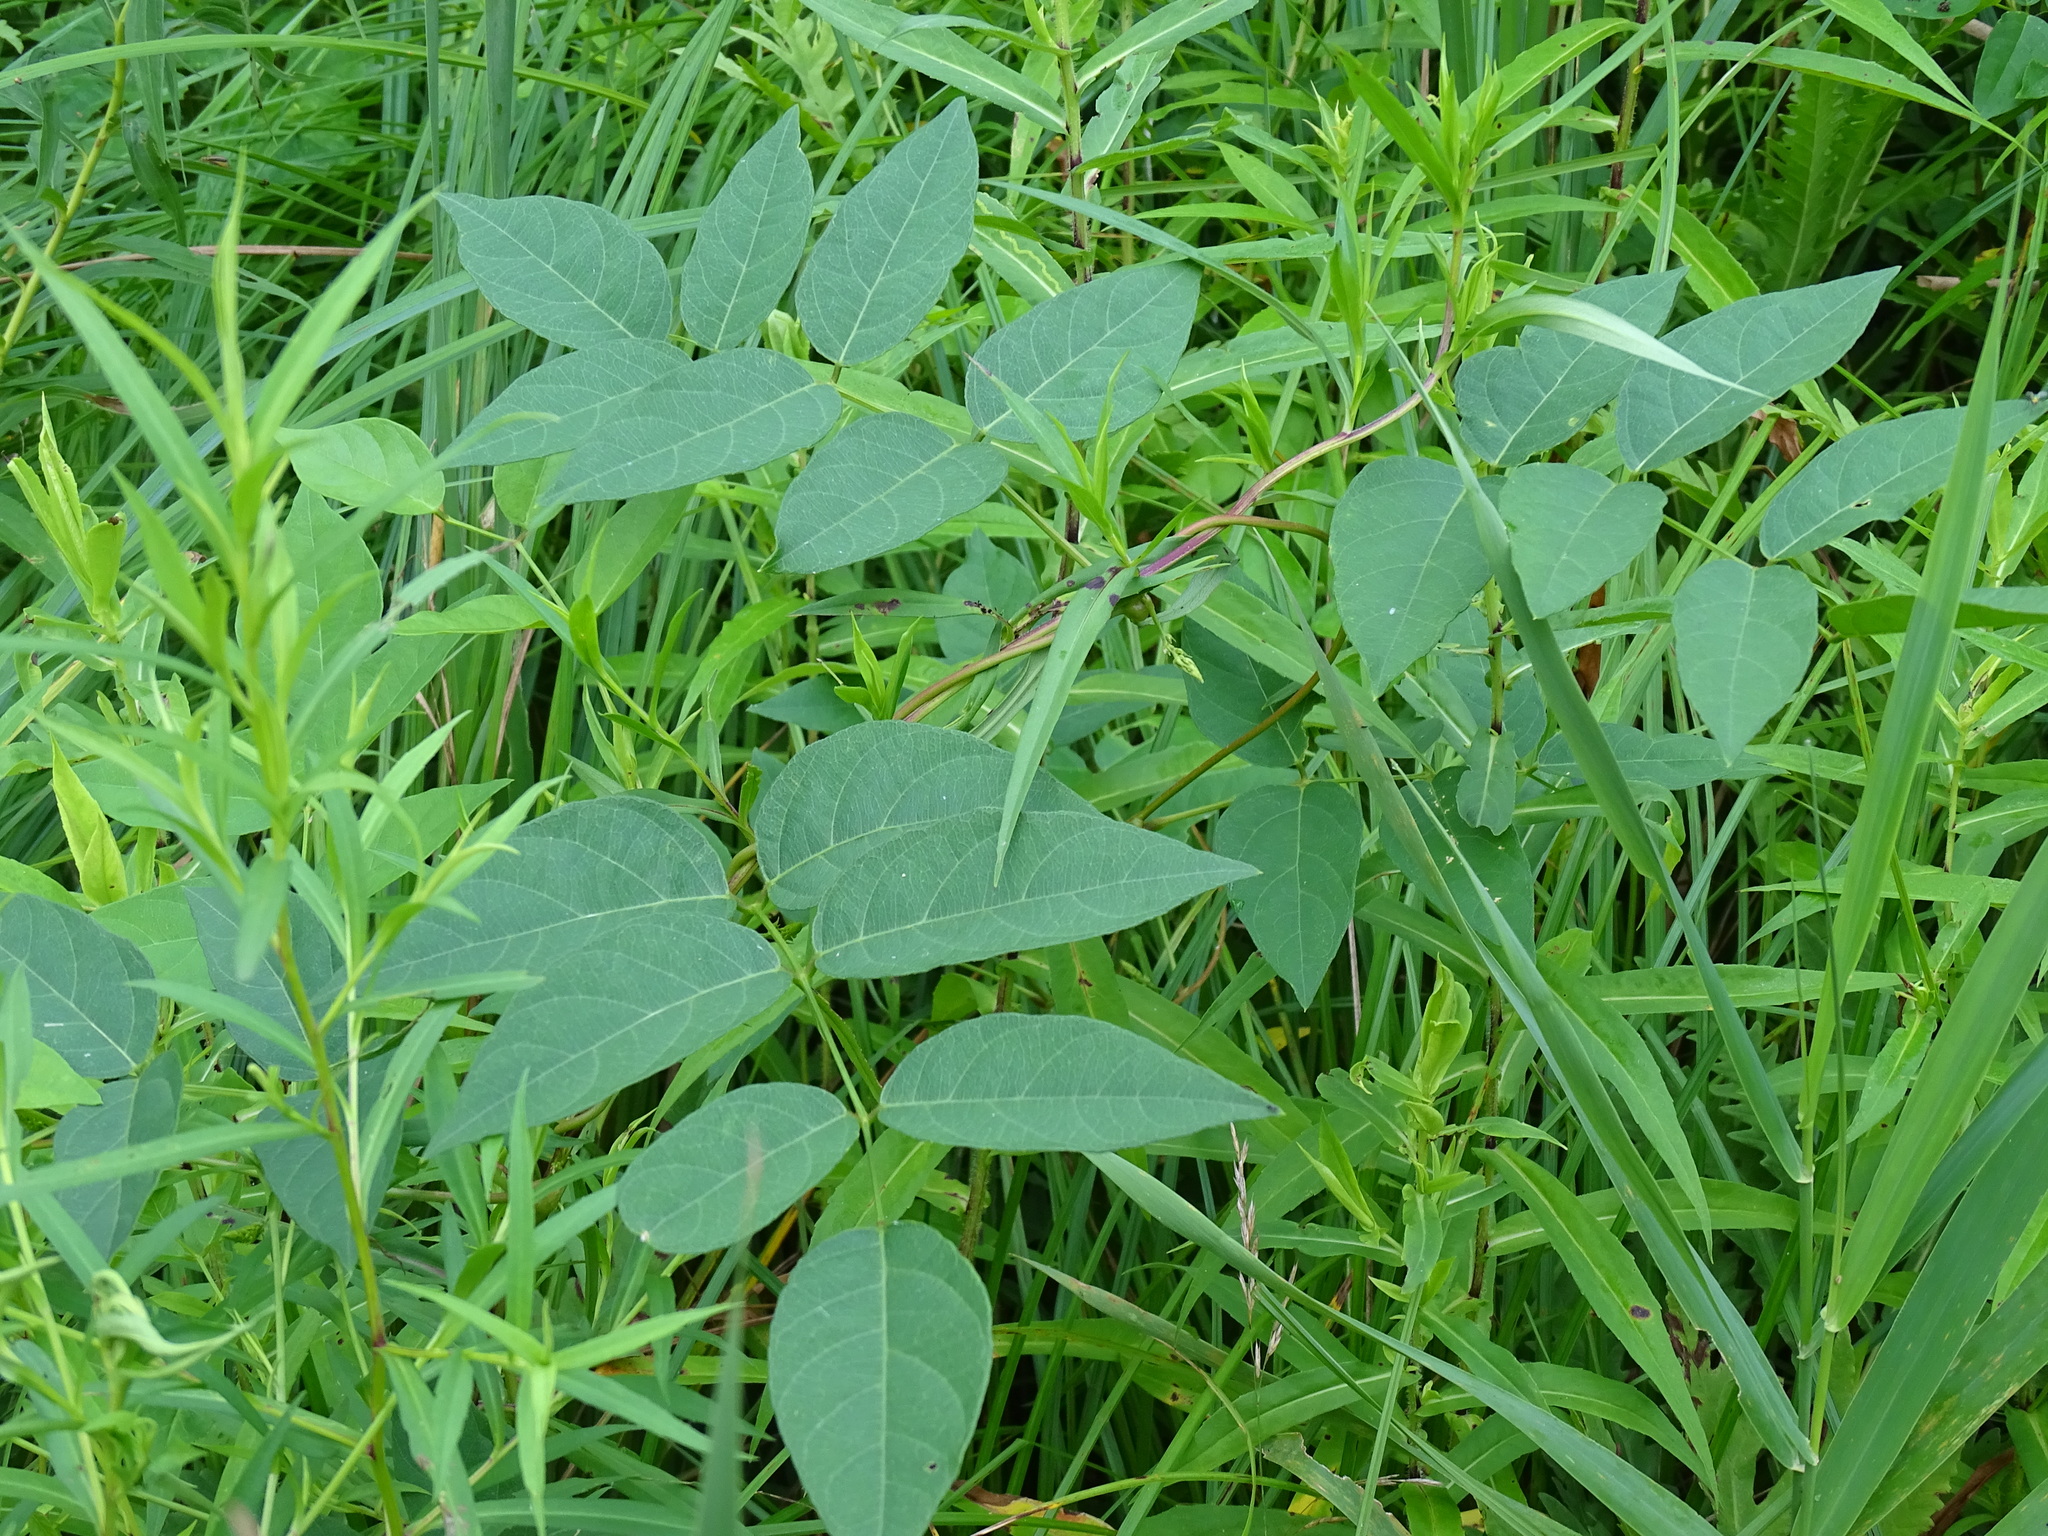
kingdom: Plantae
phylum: Tracheophyta
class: Magnoliopsida
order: Fabales
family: Fabaceae
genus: Apios
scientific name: Apios americana
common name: American potato-bean
